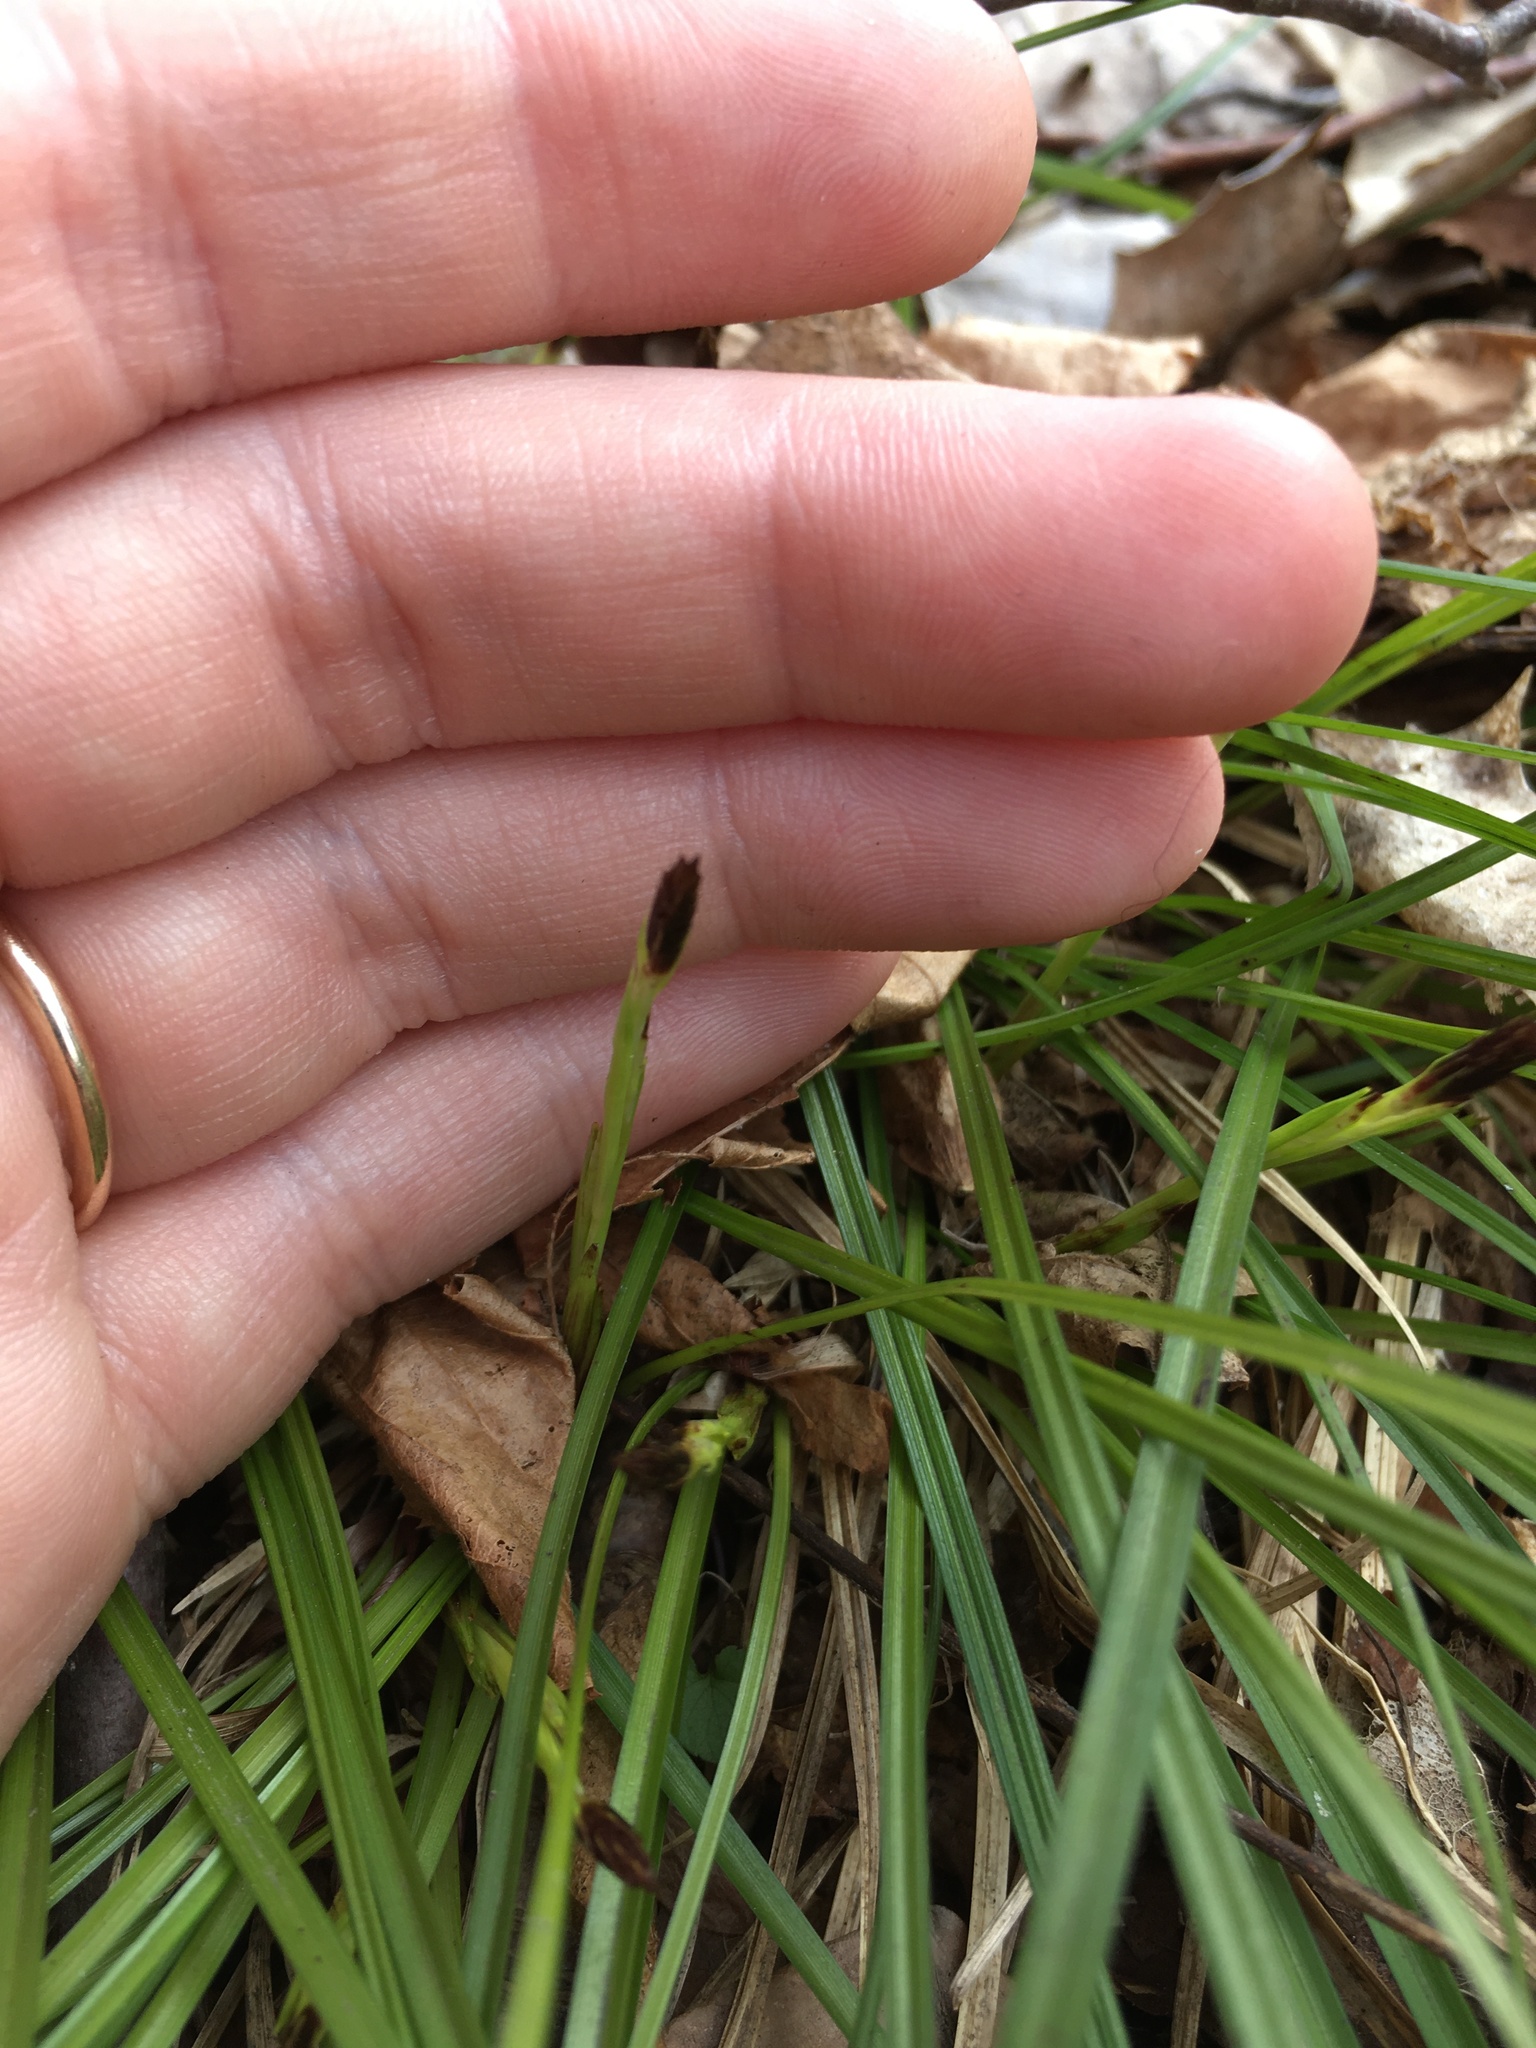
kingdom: Plantae
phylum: Tracheophyta
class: Liliopsida
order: Poales
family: Cyperaceae
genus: Carex
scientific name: Carex pedunculata
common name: Pedunculate sedge
